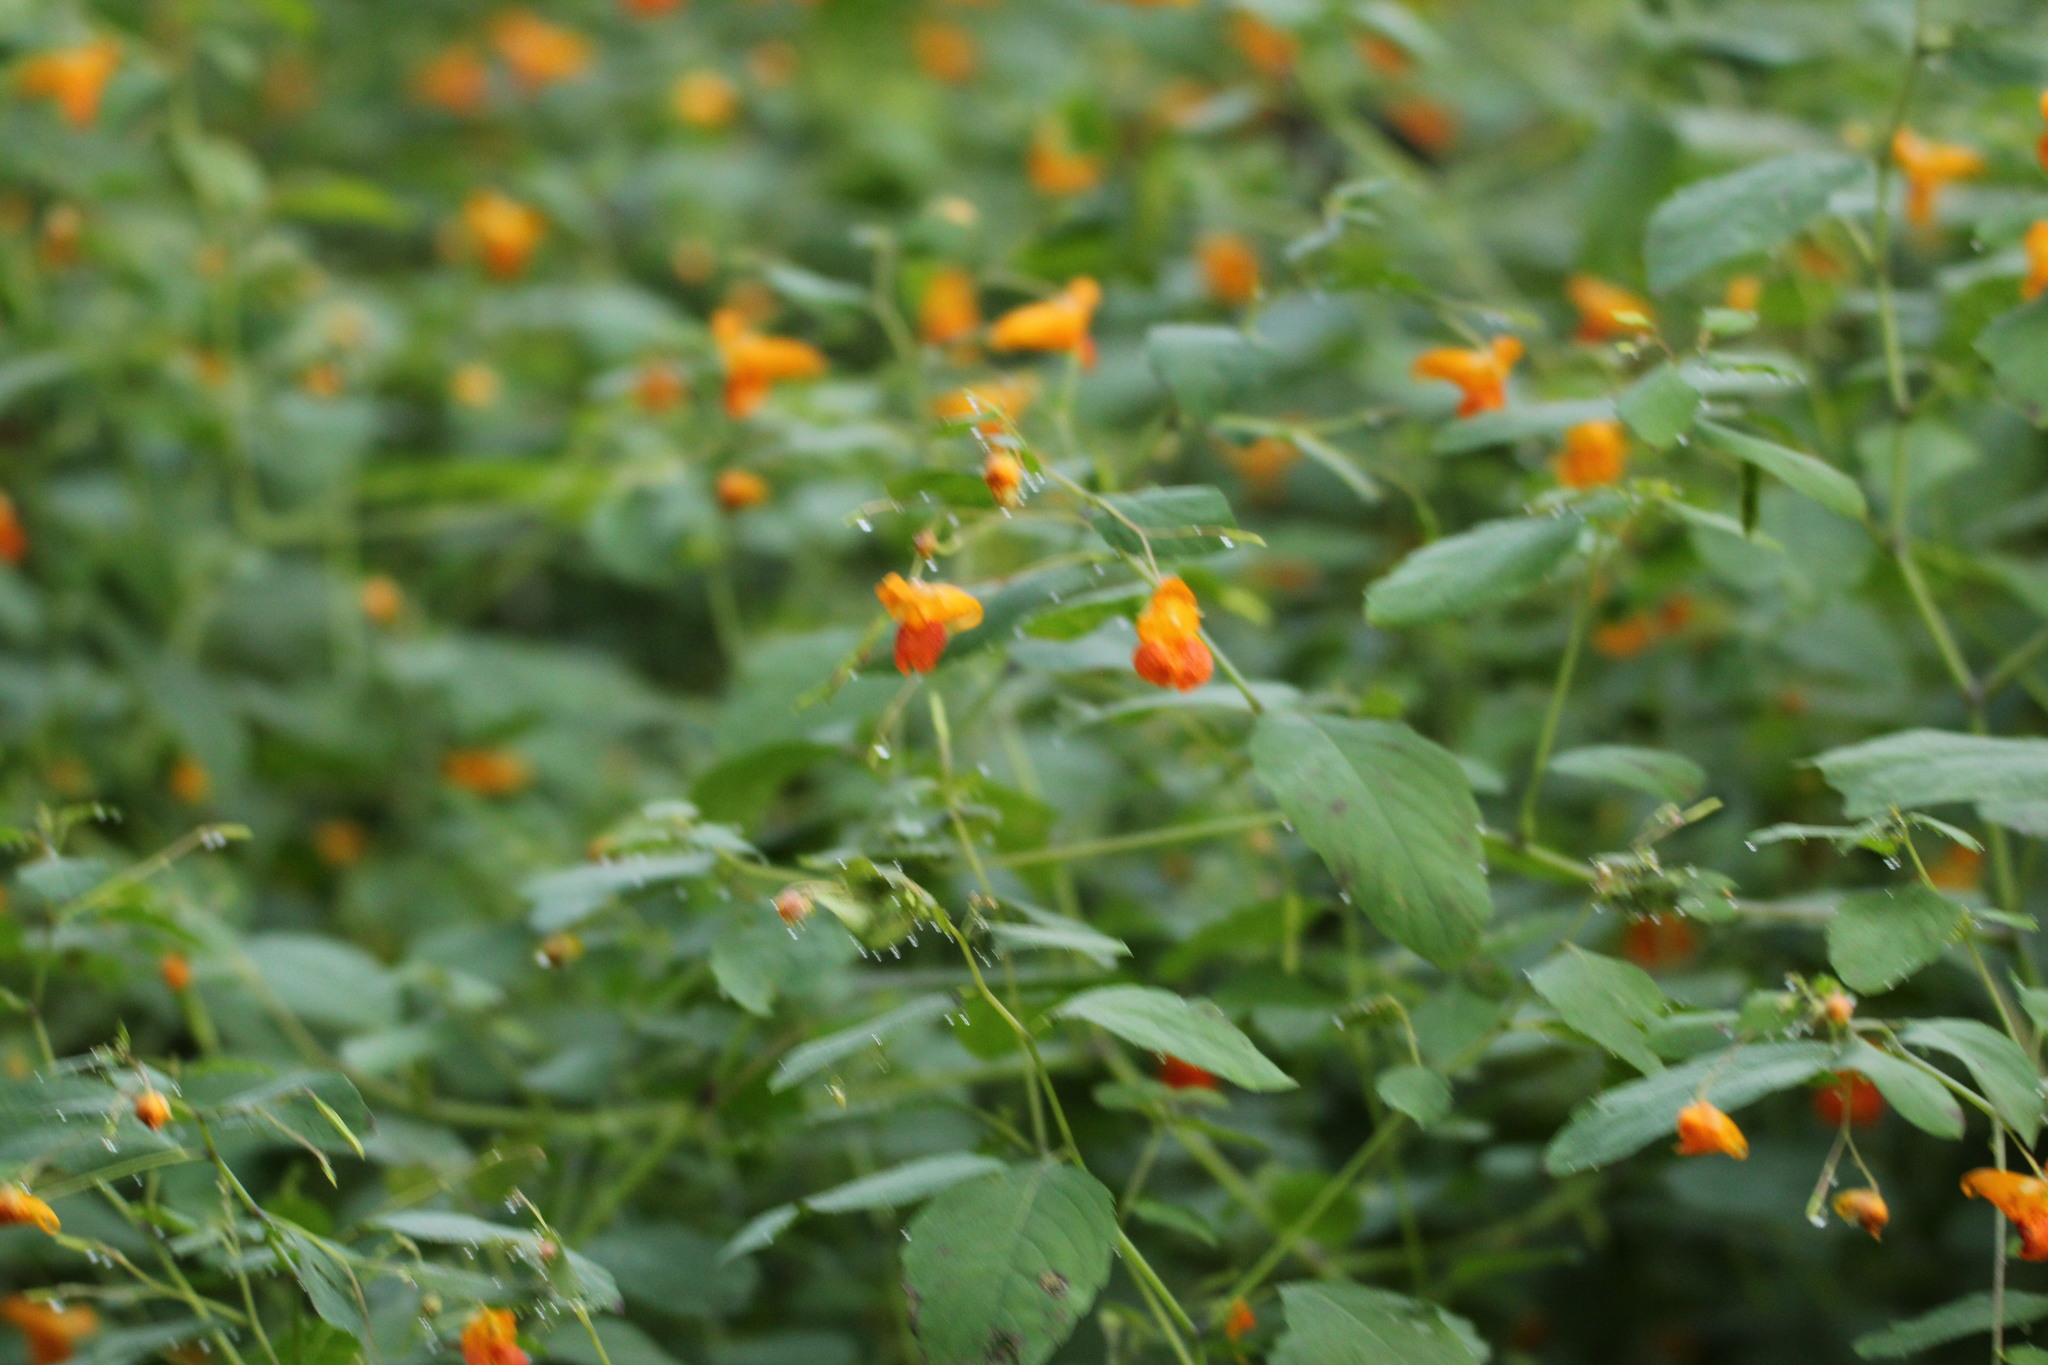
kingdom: Plantae
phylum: Tracheophyta
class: Magnoliopsida
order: Ericales
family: Balsaminaceae
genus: Impatiens
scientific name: Impatiens capensis
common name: Orange balsam
